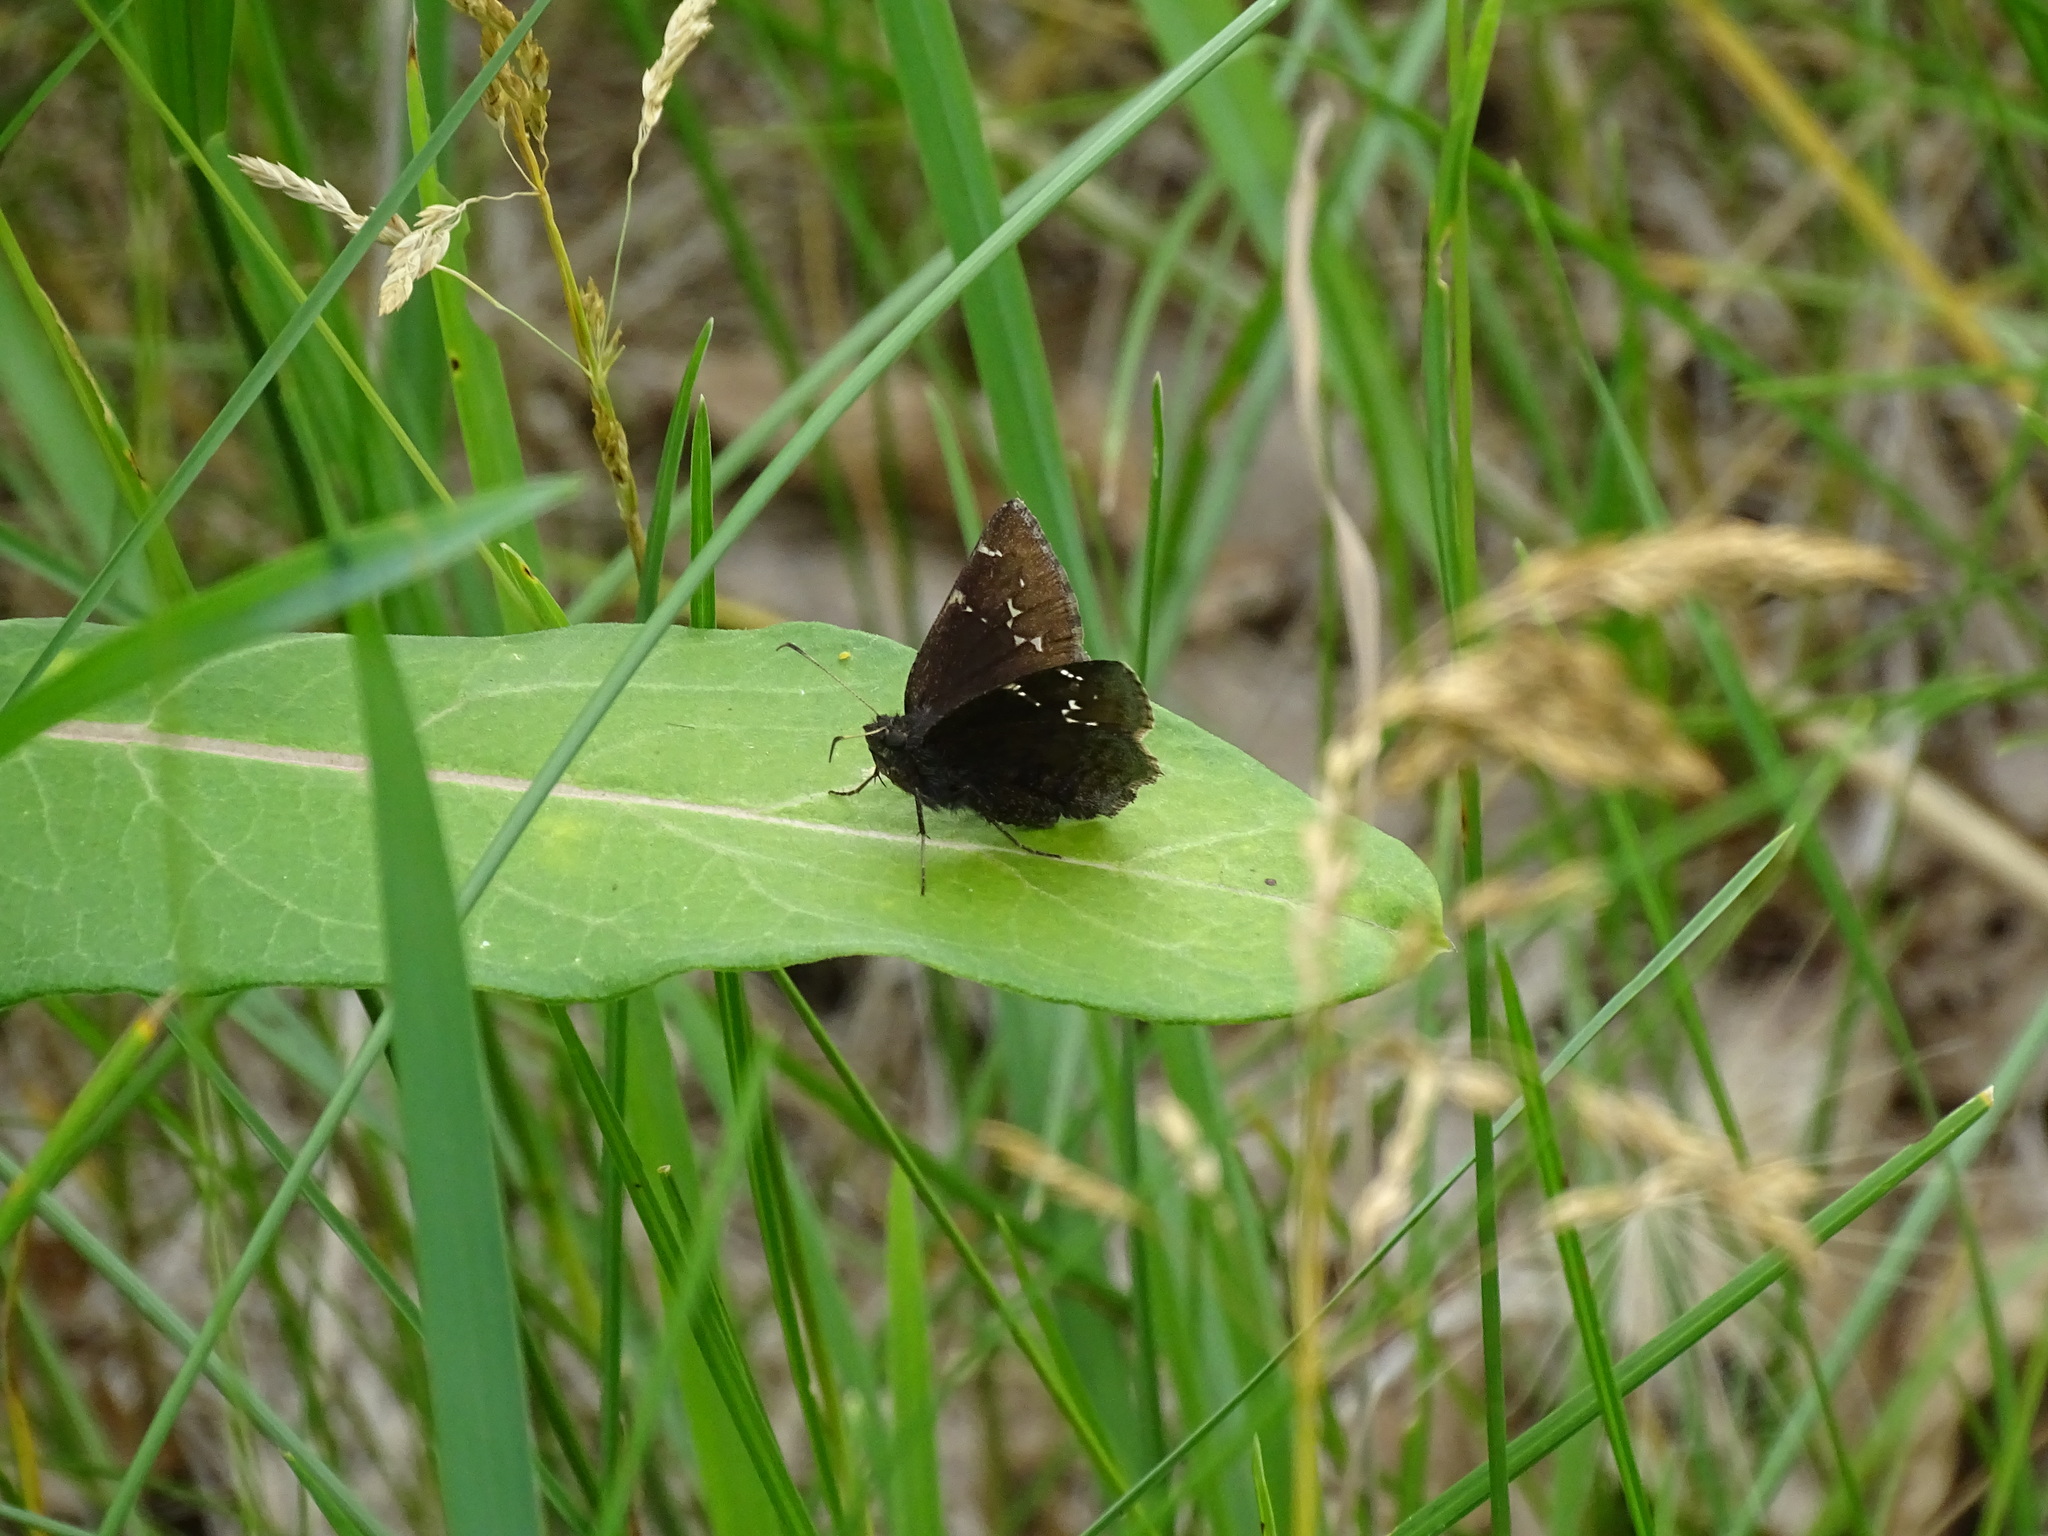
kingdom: Animalia
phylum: Arthropoda
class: Insecta
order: Lepidoptera
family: Hesperiidae
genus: Thorybes
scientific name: Thorybes pylades
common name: Northern cloudywing
